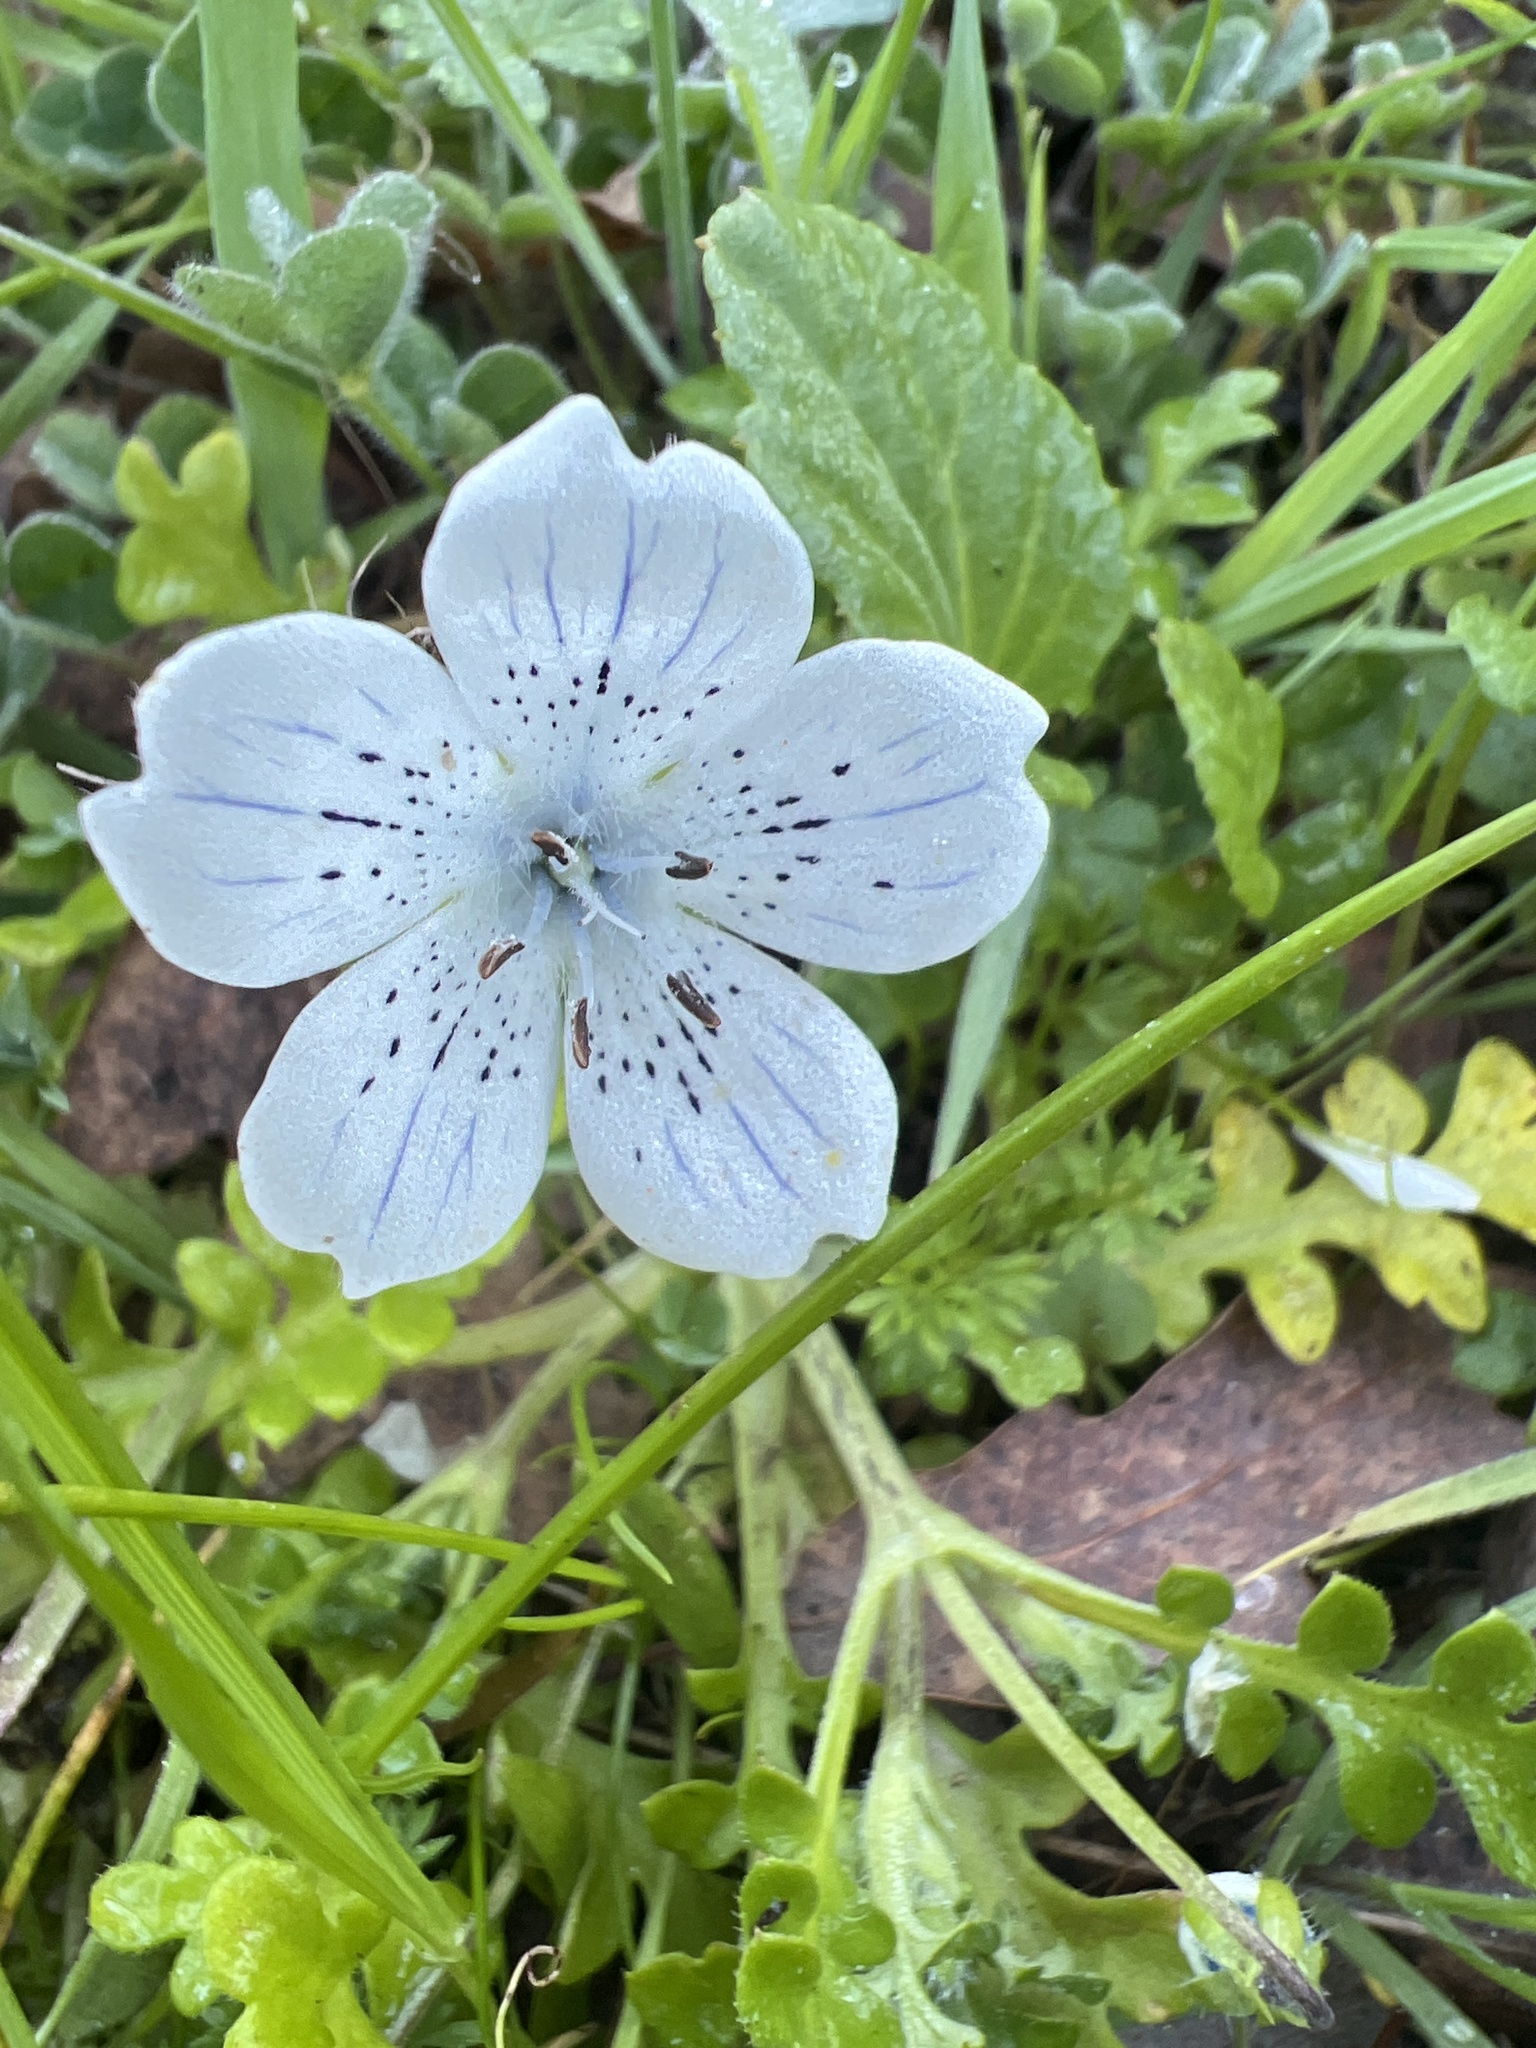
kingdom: Plantae
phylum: Tracheophyta
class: Magnoliopsida
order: Boraginales
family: Hydrophyllaceae
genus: Nemophila
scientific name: Nemophila menziesii
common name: Baby's-blue-eyes
